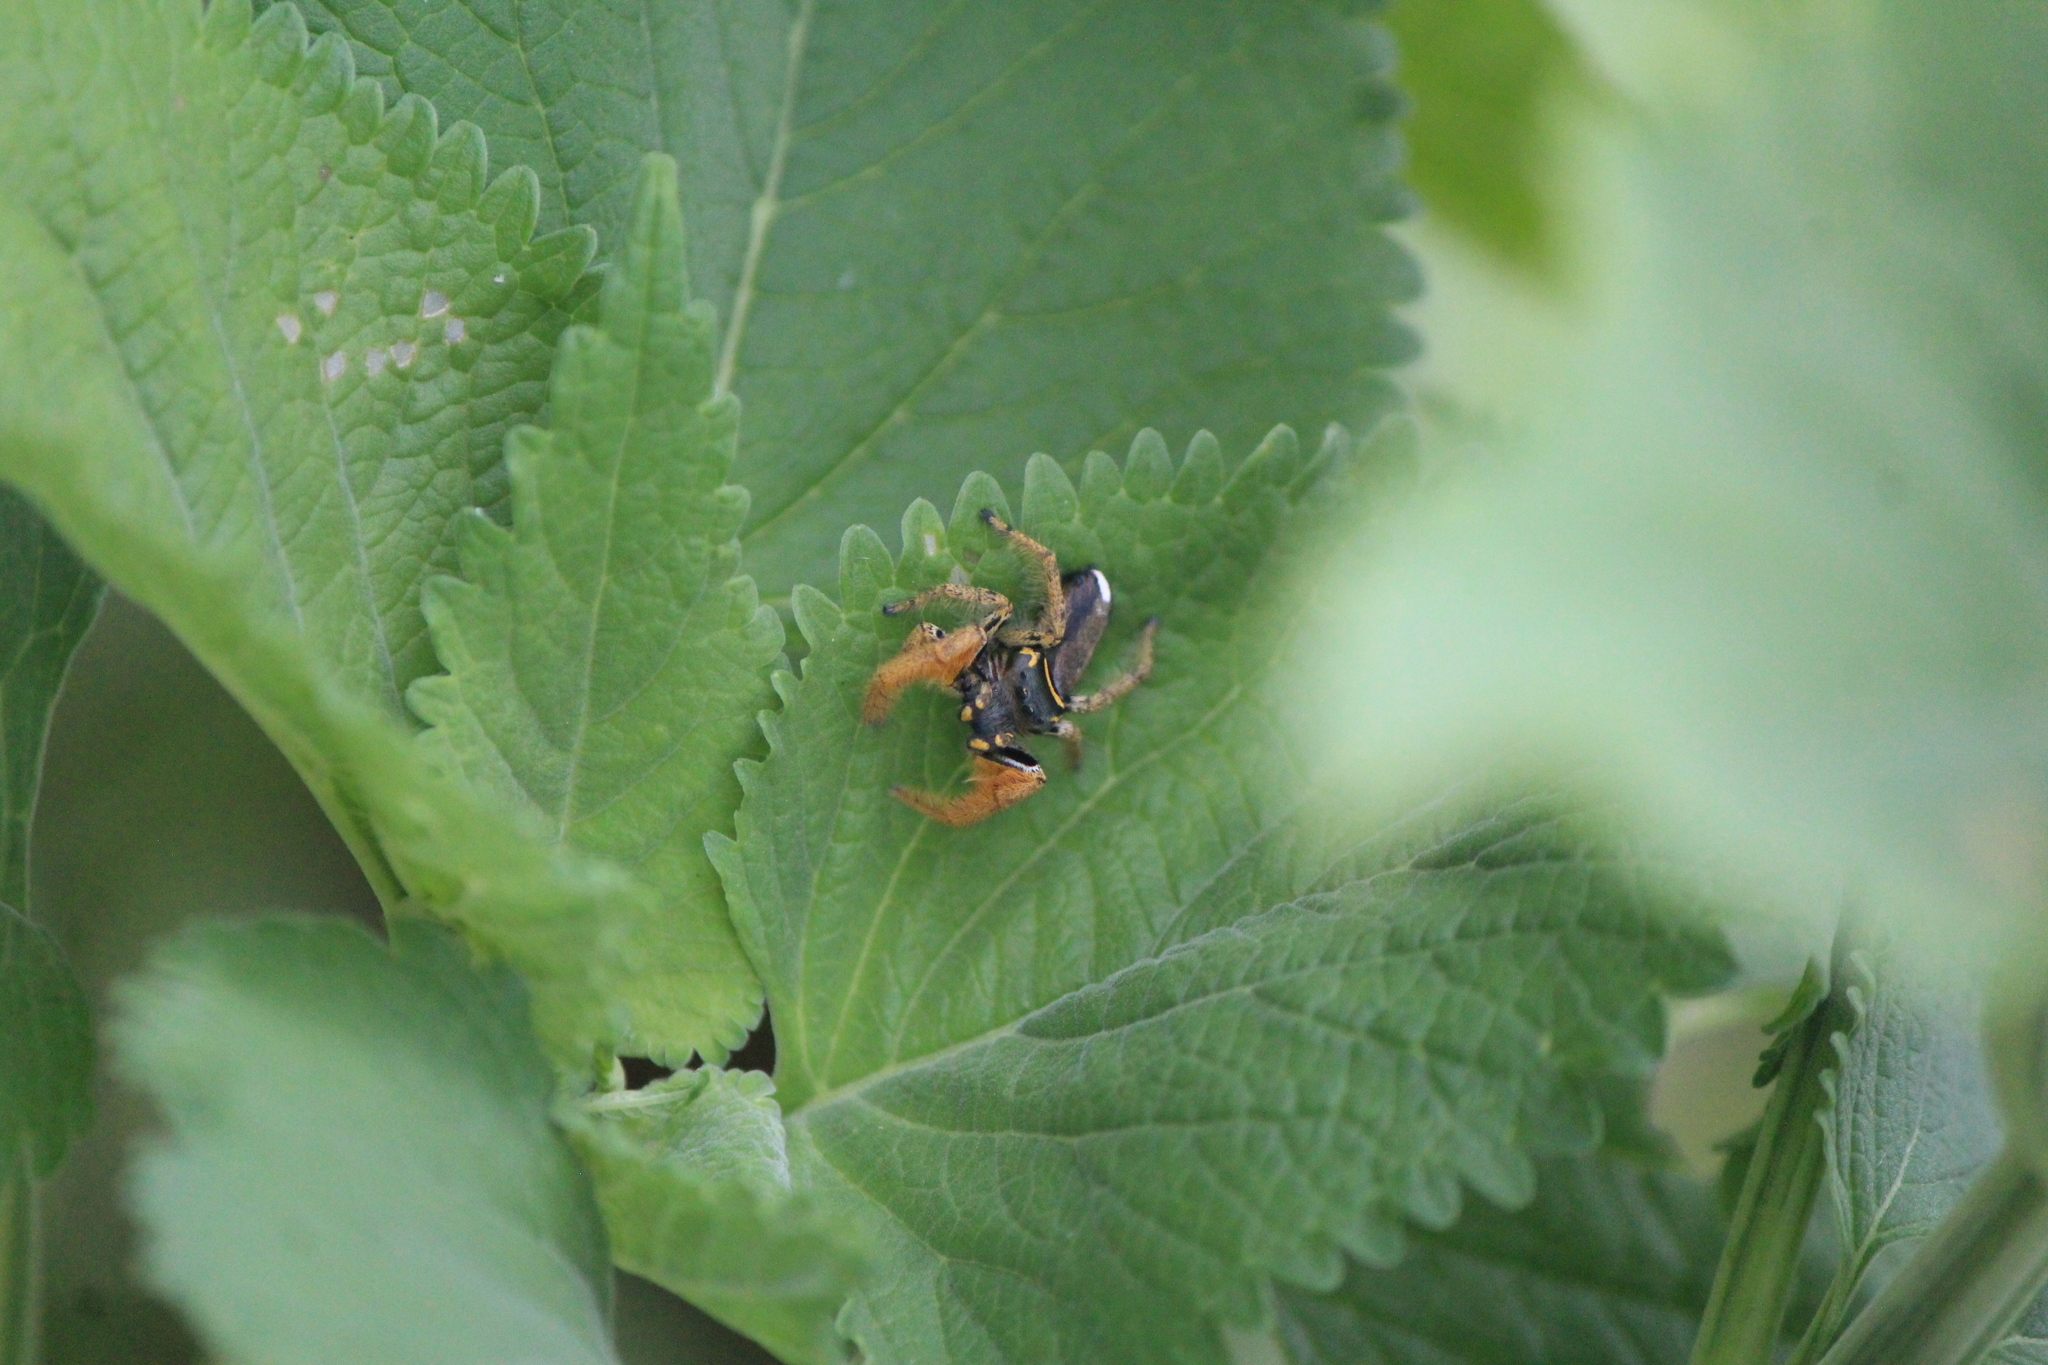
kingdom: Animalia
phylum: Arthropoda
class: Arachnida
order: Araneae
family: Salticidae
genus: Phidippus
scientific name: Phidippus arizonensis
